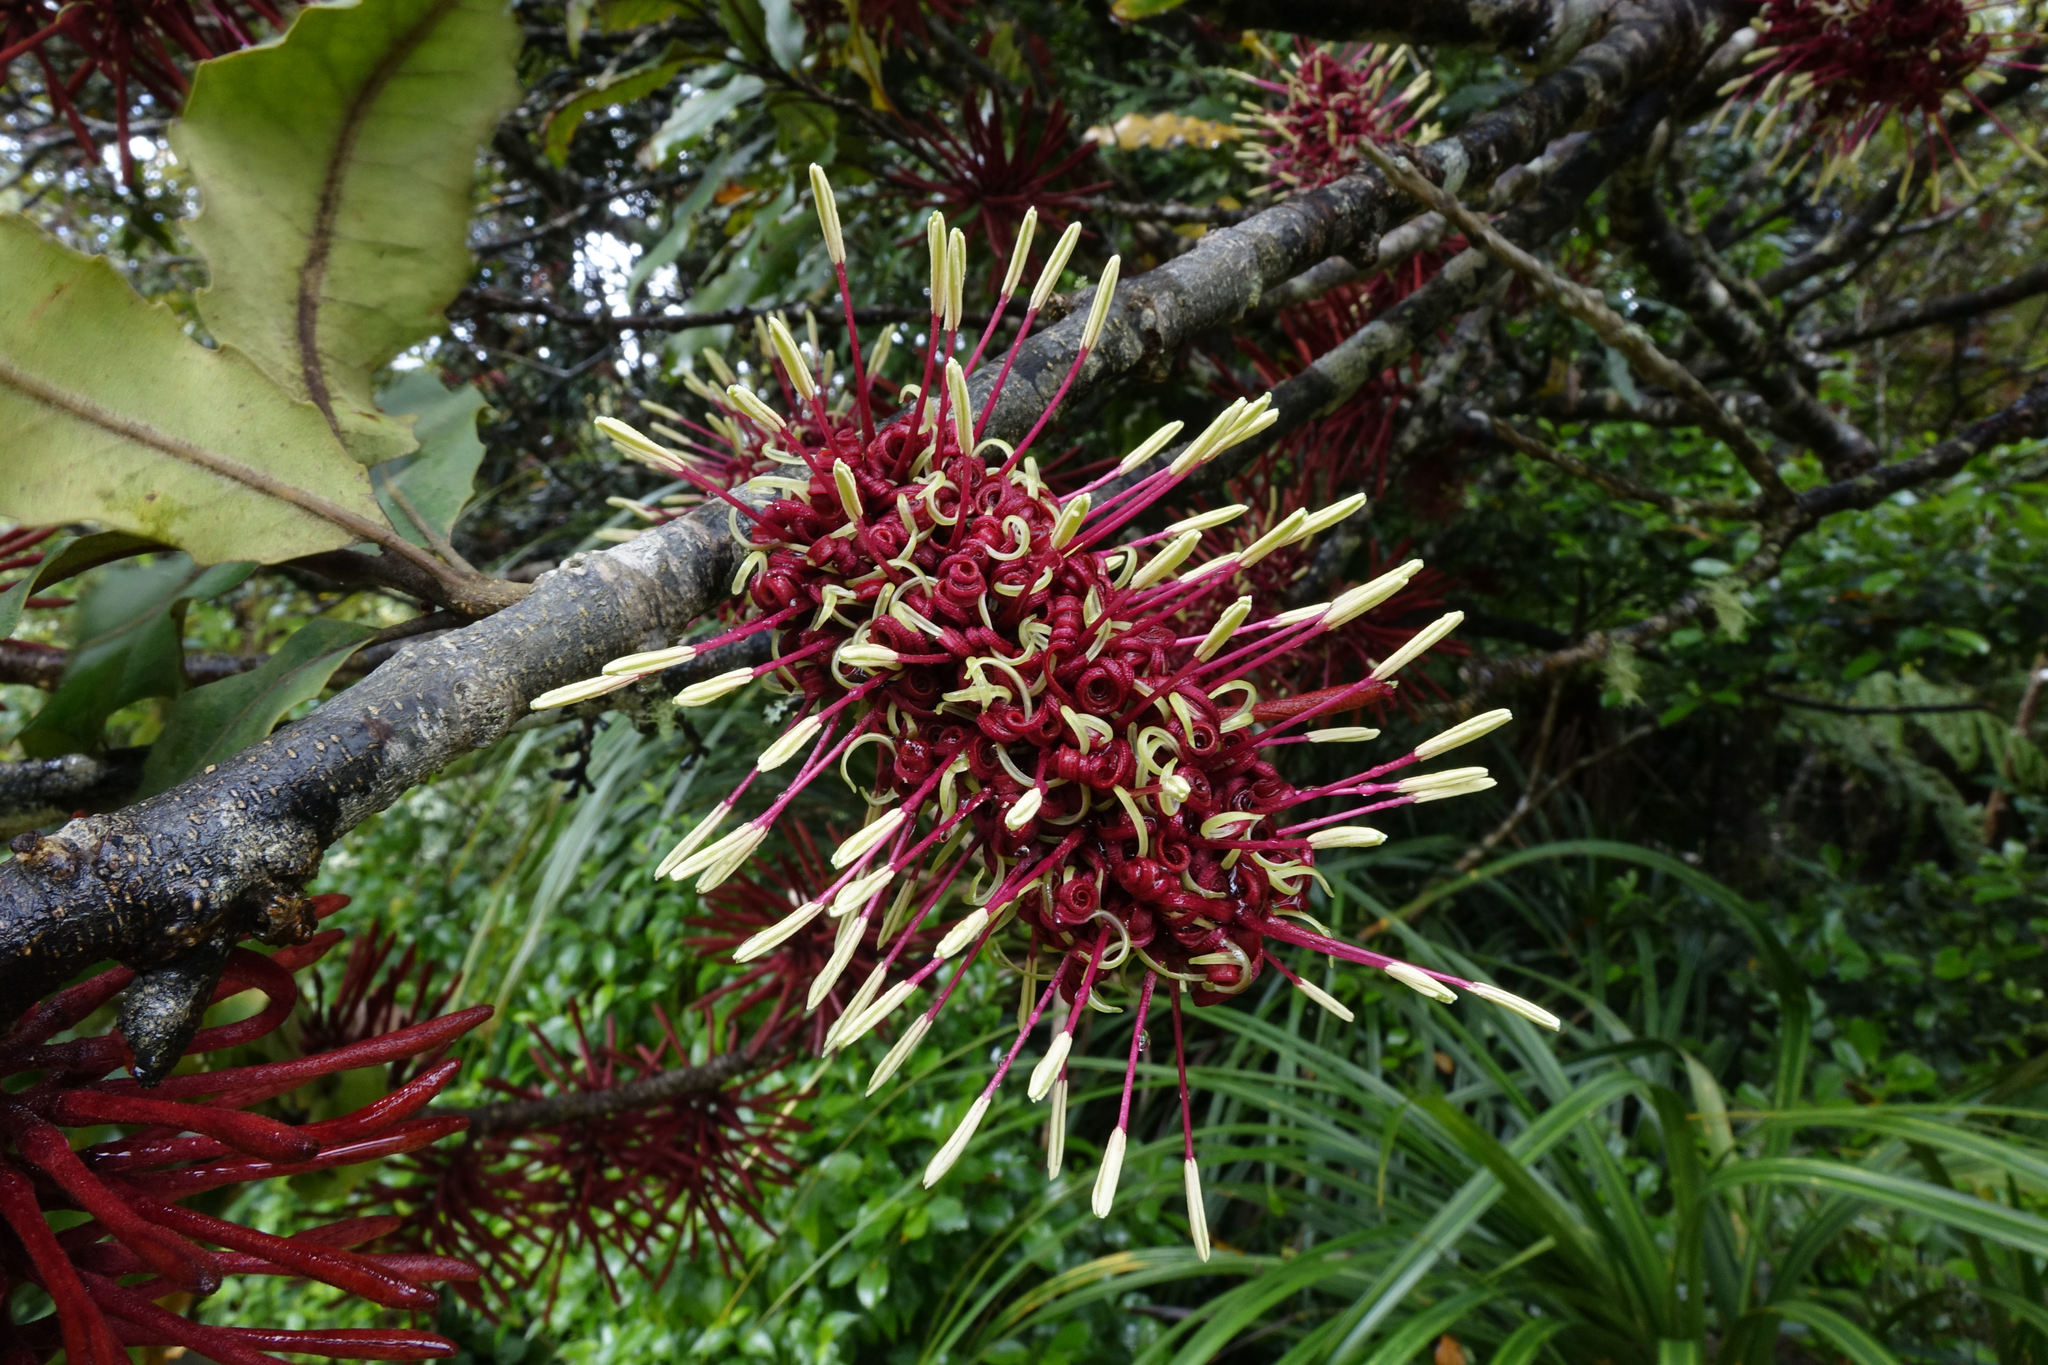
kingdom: Plantae
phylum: Tracheophyta
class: Magnoliopsida
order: Proteales
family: Proteaceae
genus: Knightia
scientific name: Knightia excelsa
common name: New zealand-honeysuckle
